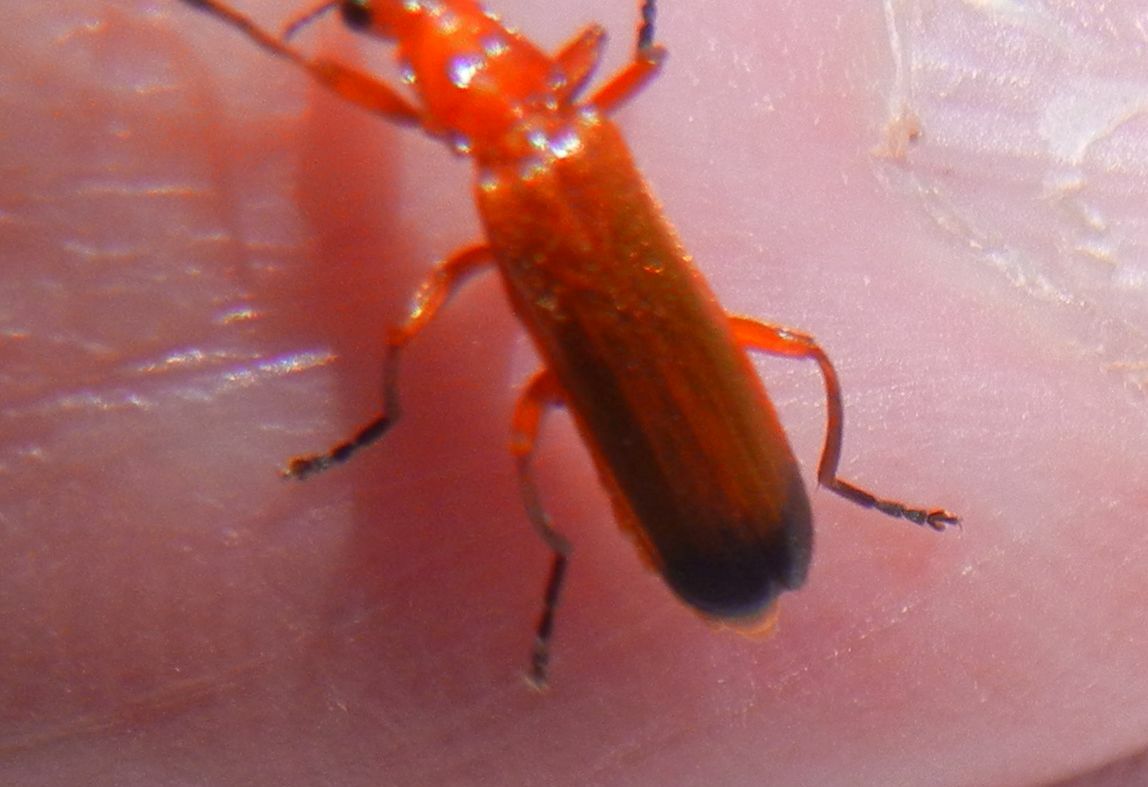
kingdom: Animalia
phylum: Arthropoda
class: Insecta
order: Coleoptera
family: Cantharidae
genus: Rhagonycha
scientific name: Rhagonycha fulva
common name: Common red soldier beetle
